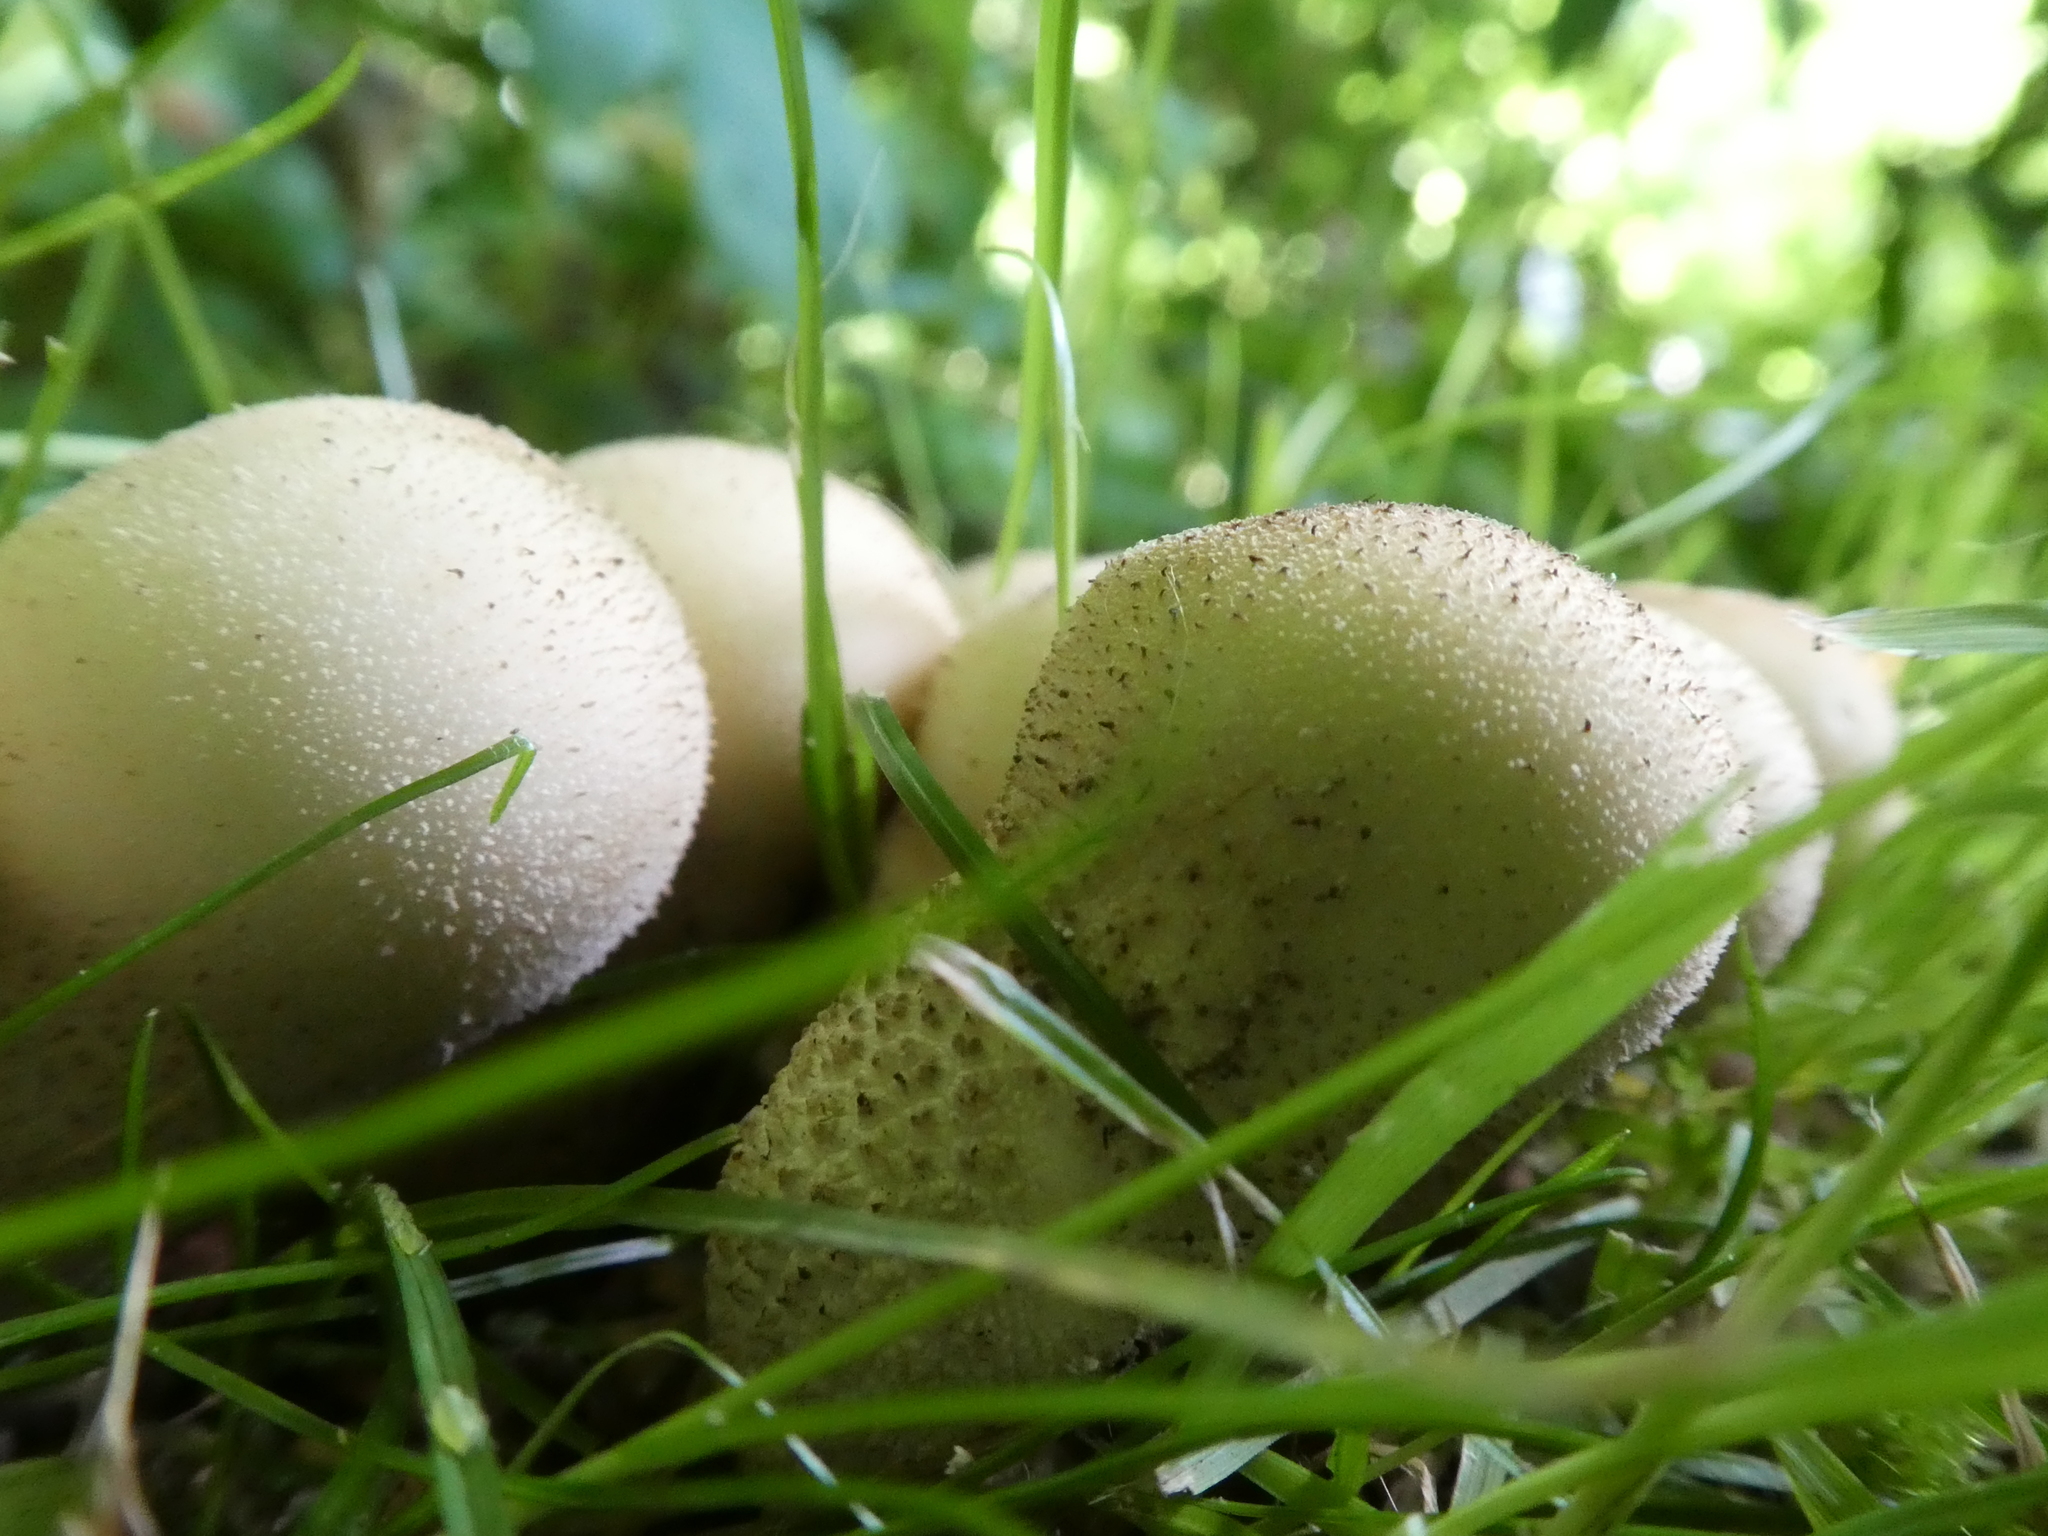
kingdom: Fungi
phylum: Basidiomycota
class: Agaricomycetes
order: Agaricales
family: Lycoperdaceae
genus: Lycoperdon
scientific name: Lycoperdon perlatum
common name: Common puffball
